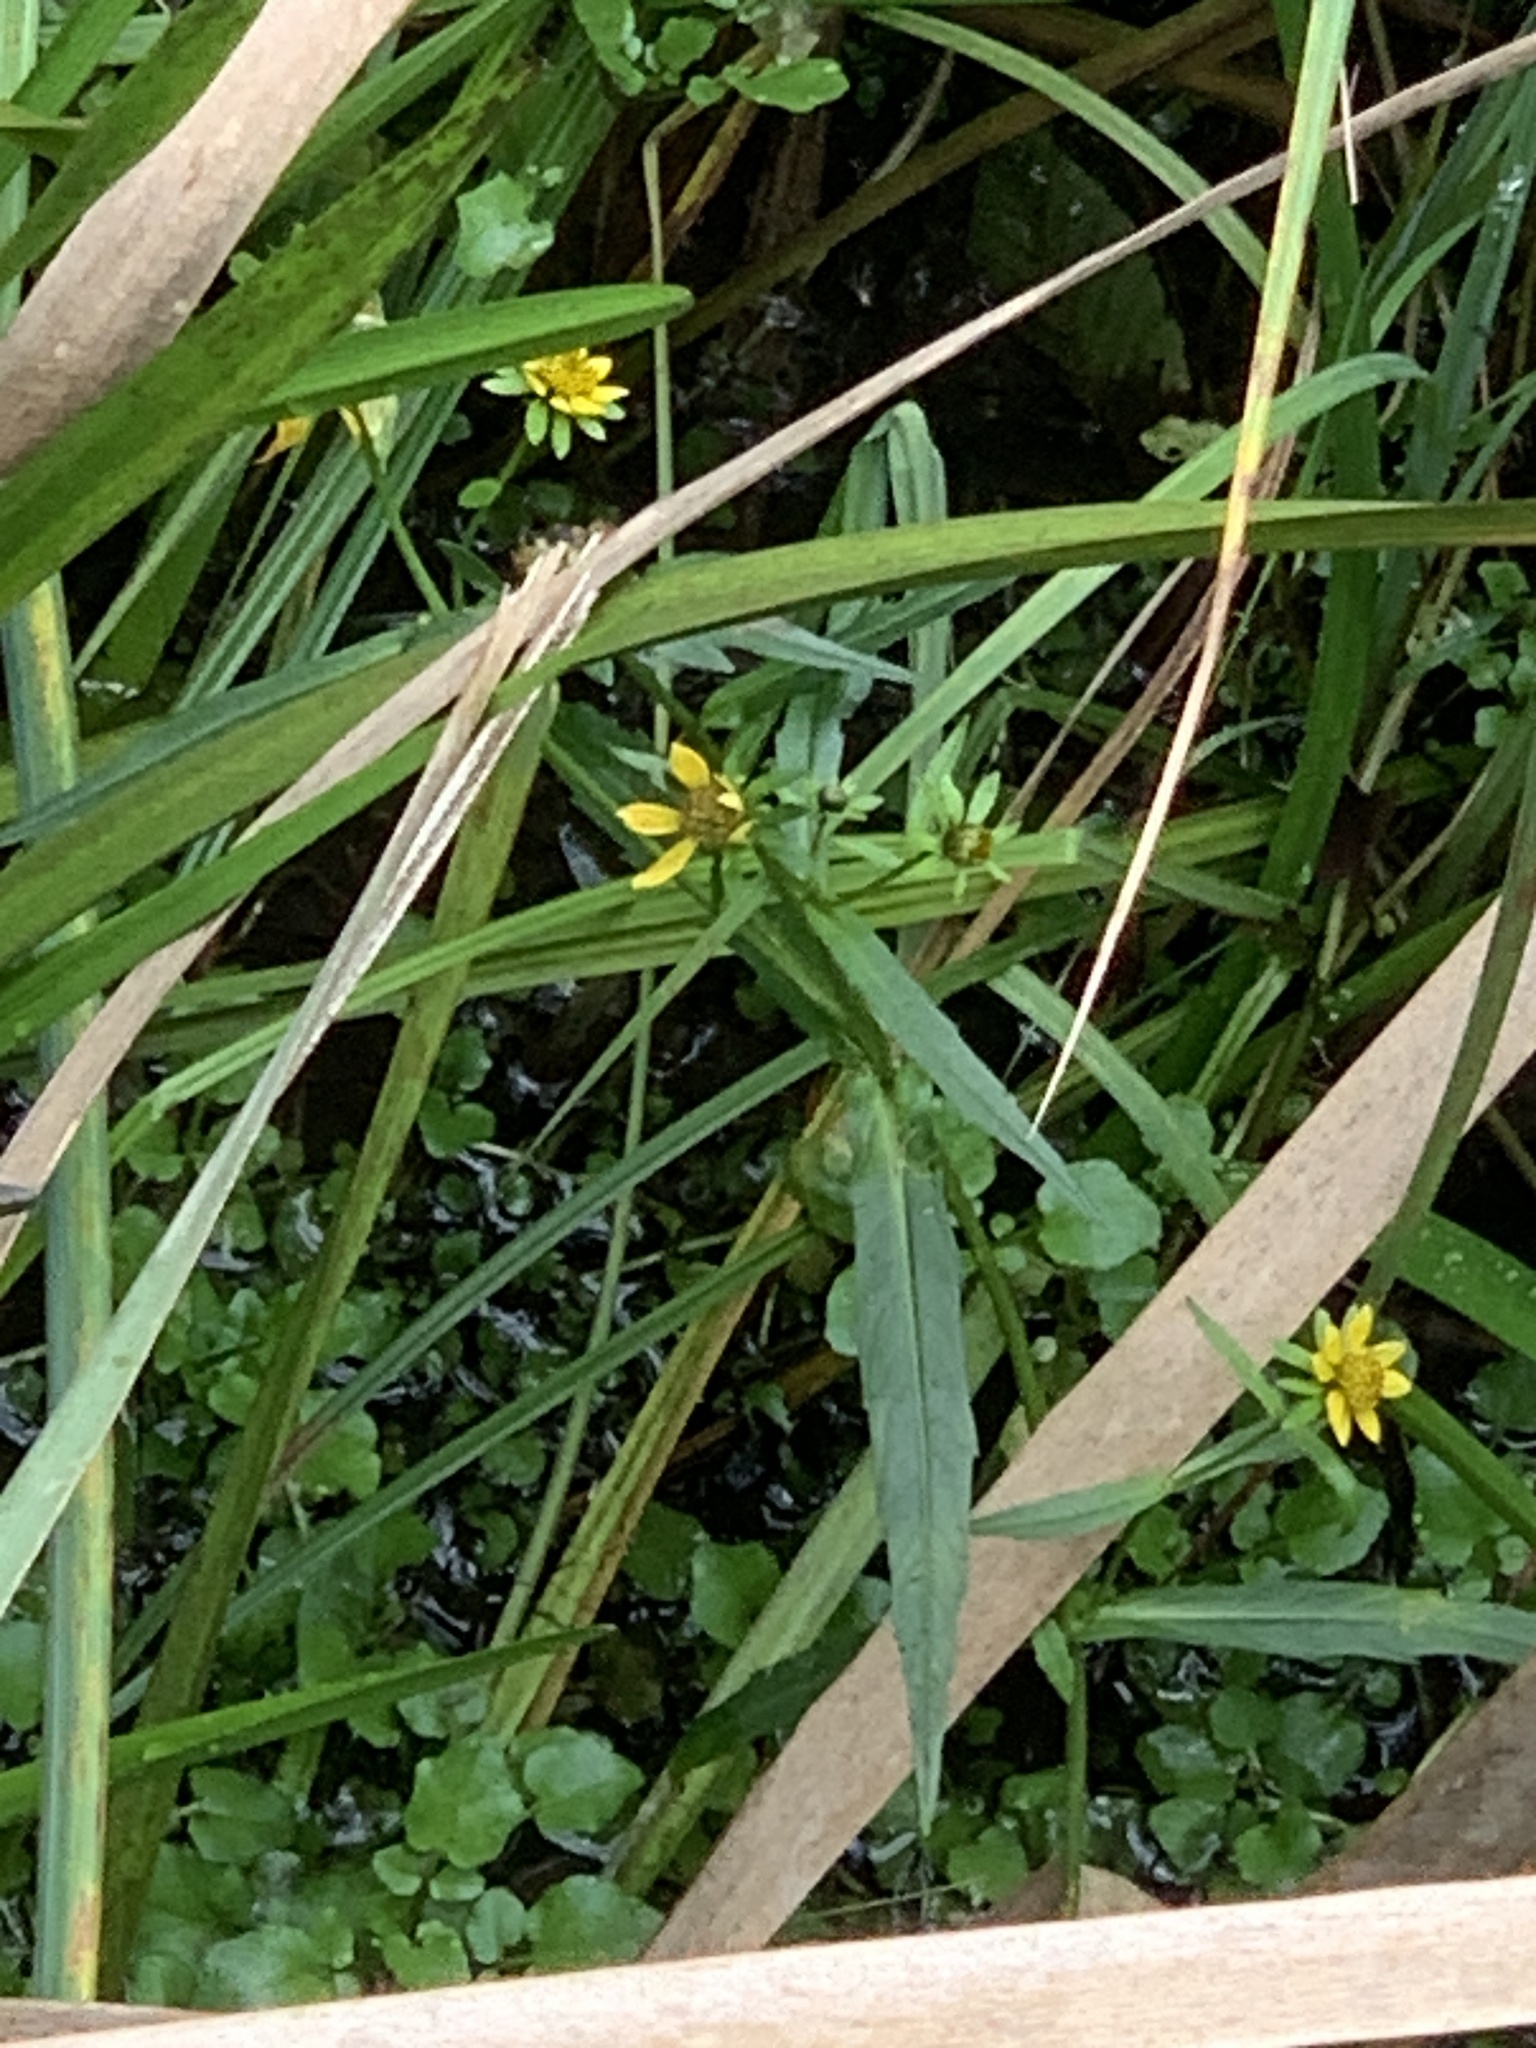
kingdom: Plantae
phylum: Tracheophyta
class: Magnoliopsida
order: Asterales
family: Asteraceae
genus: Bidens
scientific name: Bidens cernua
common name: Nodding bur-marigold
